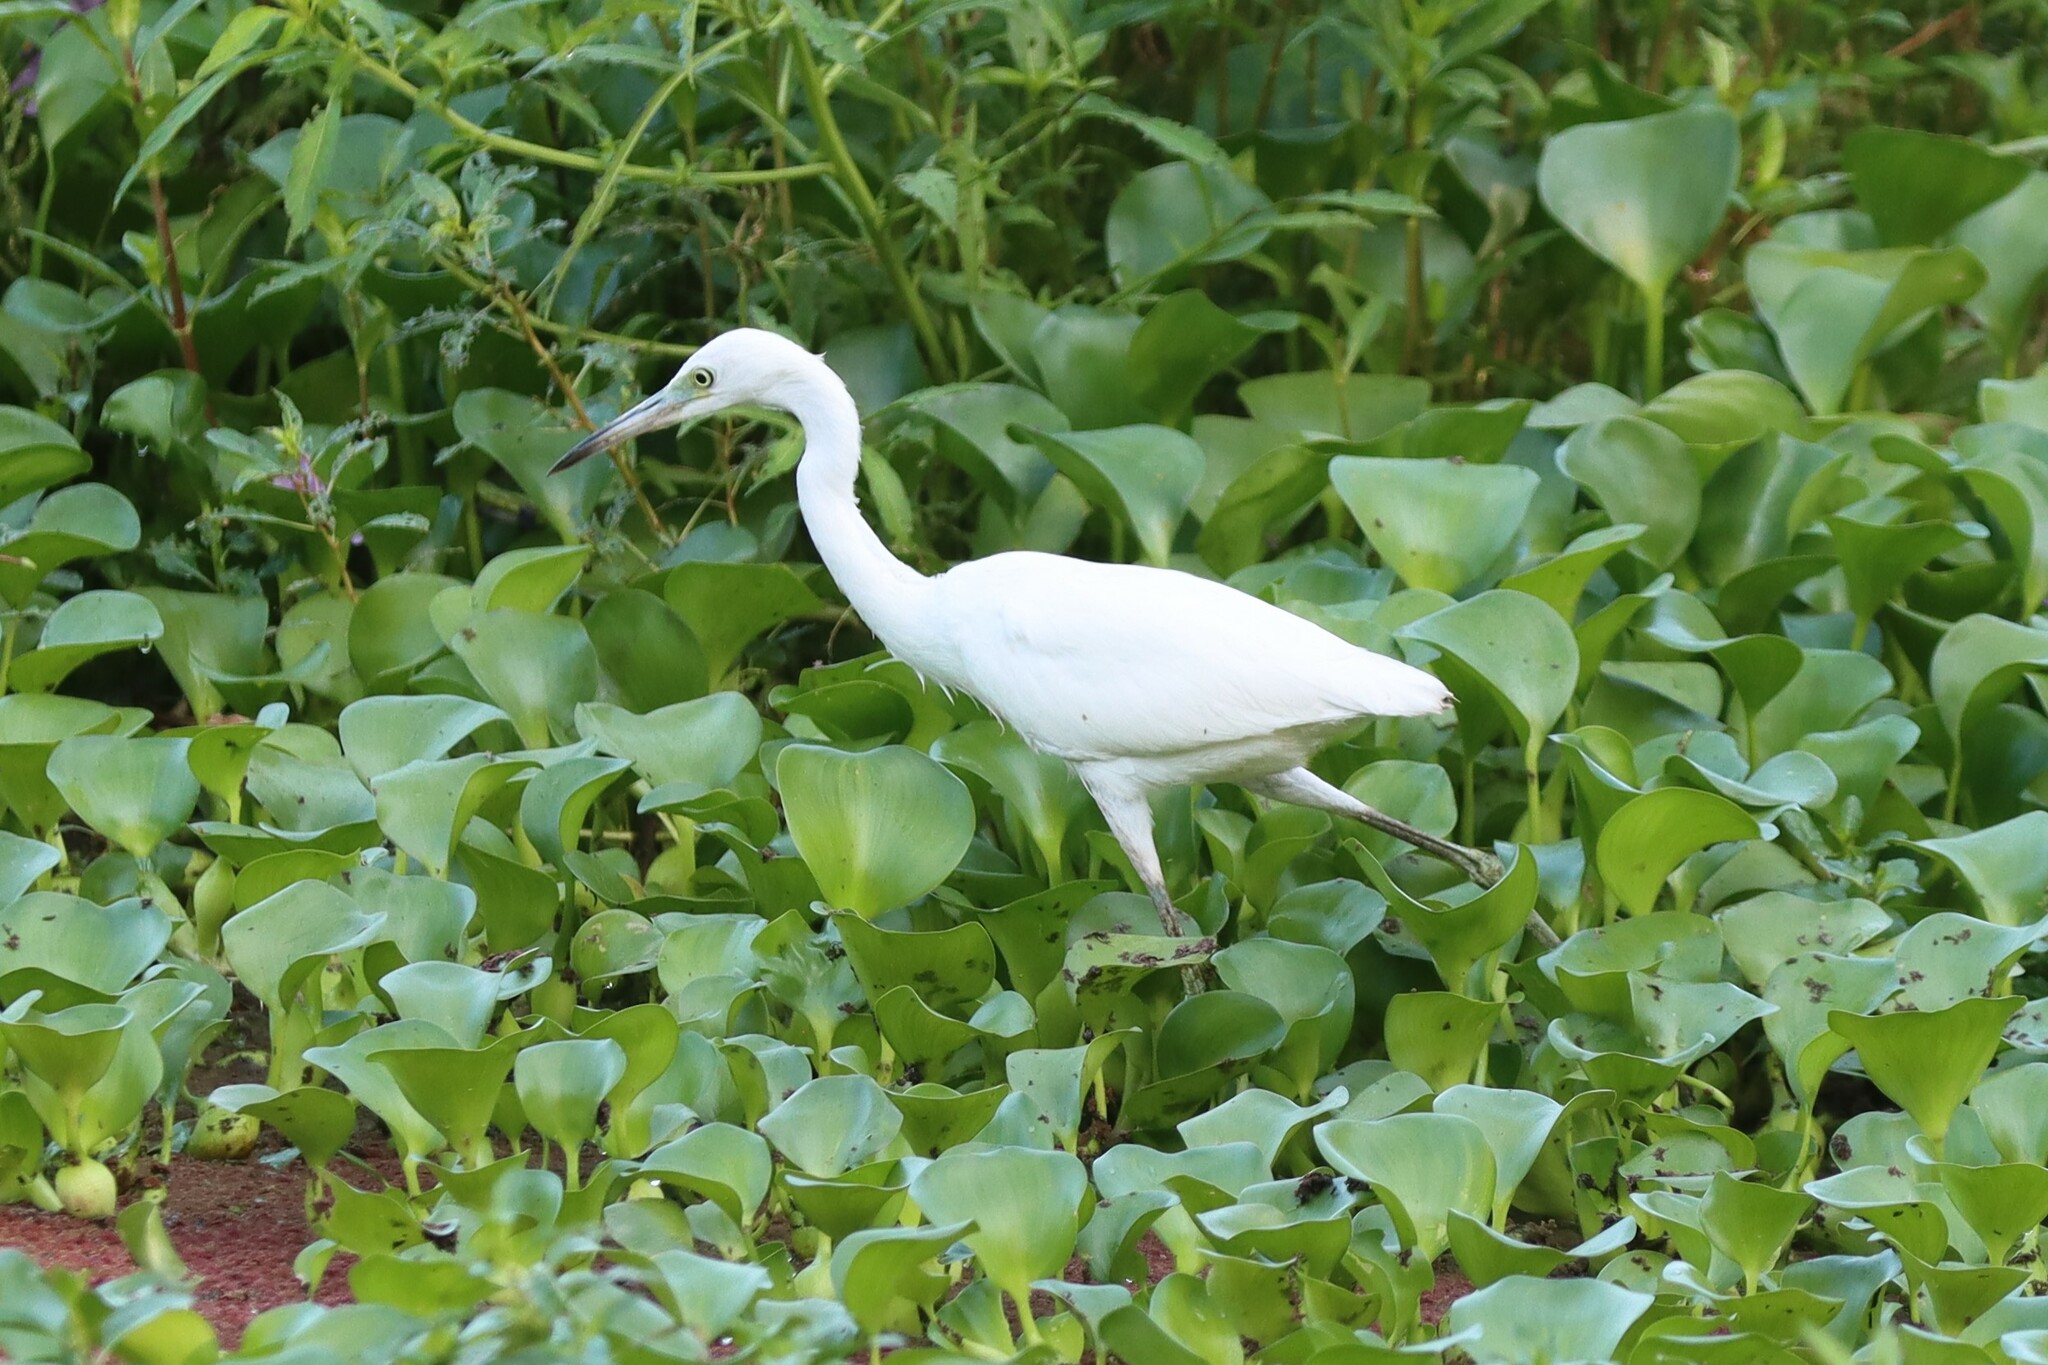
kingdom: Animalia
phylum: Chordata
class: Aves
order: Pelecaniformes
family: Ardeidae
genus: Egretta
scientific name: Egretta caerulea
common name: Little blue heron
